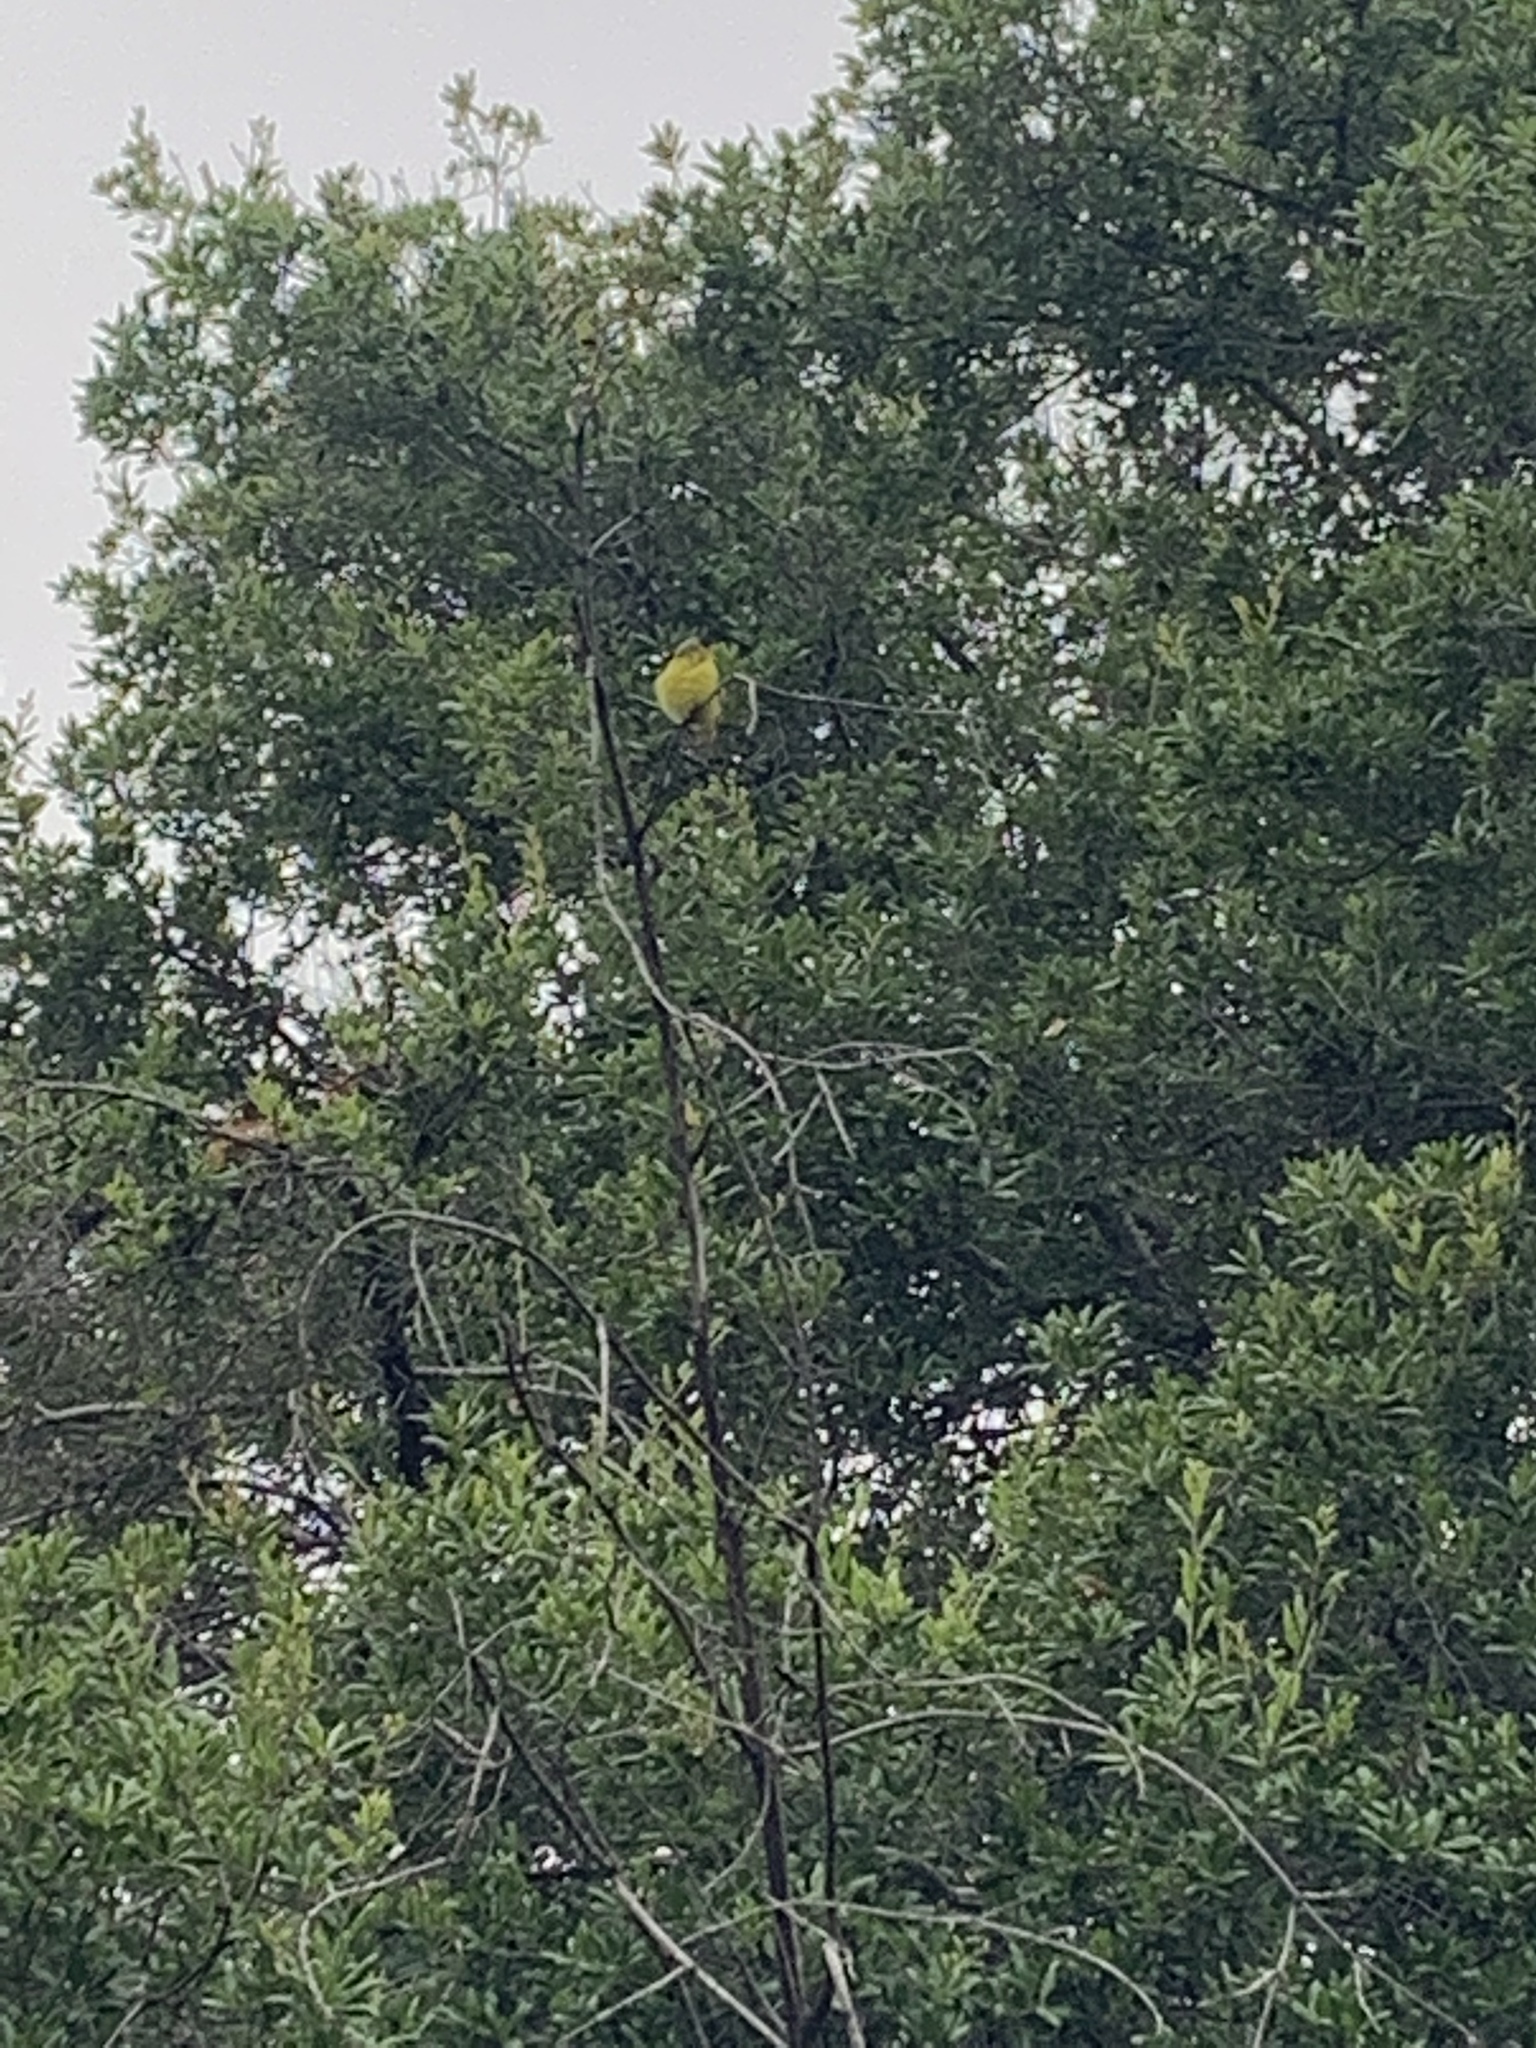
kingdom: Animalia
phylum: Chordata
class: Aves
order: Passeriformes
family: Fringillidae
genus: Spinus
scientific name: Spinus psaltria
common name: Lesser goldfinch
